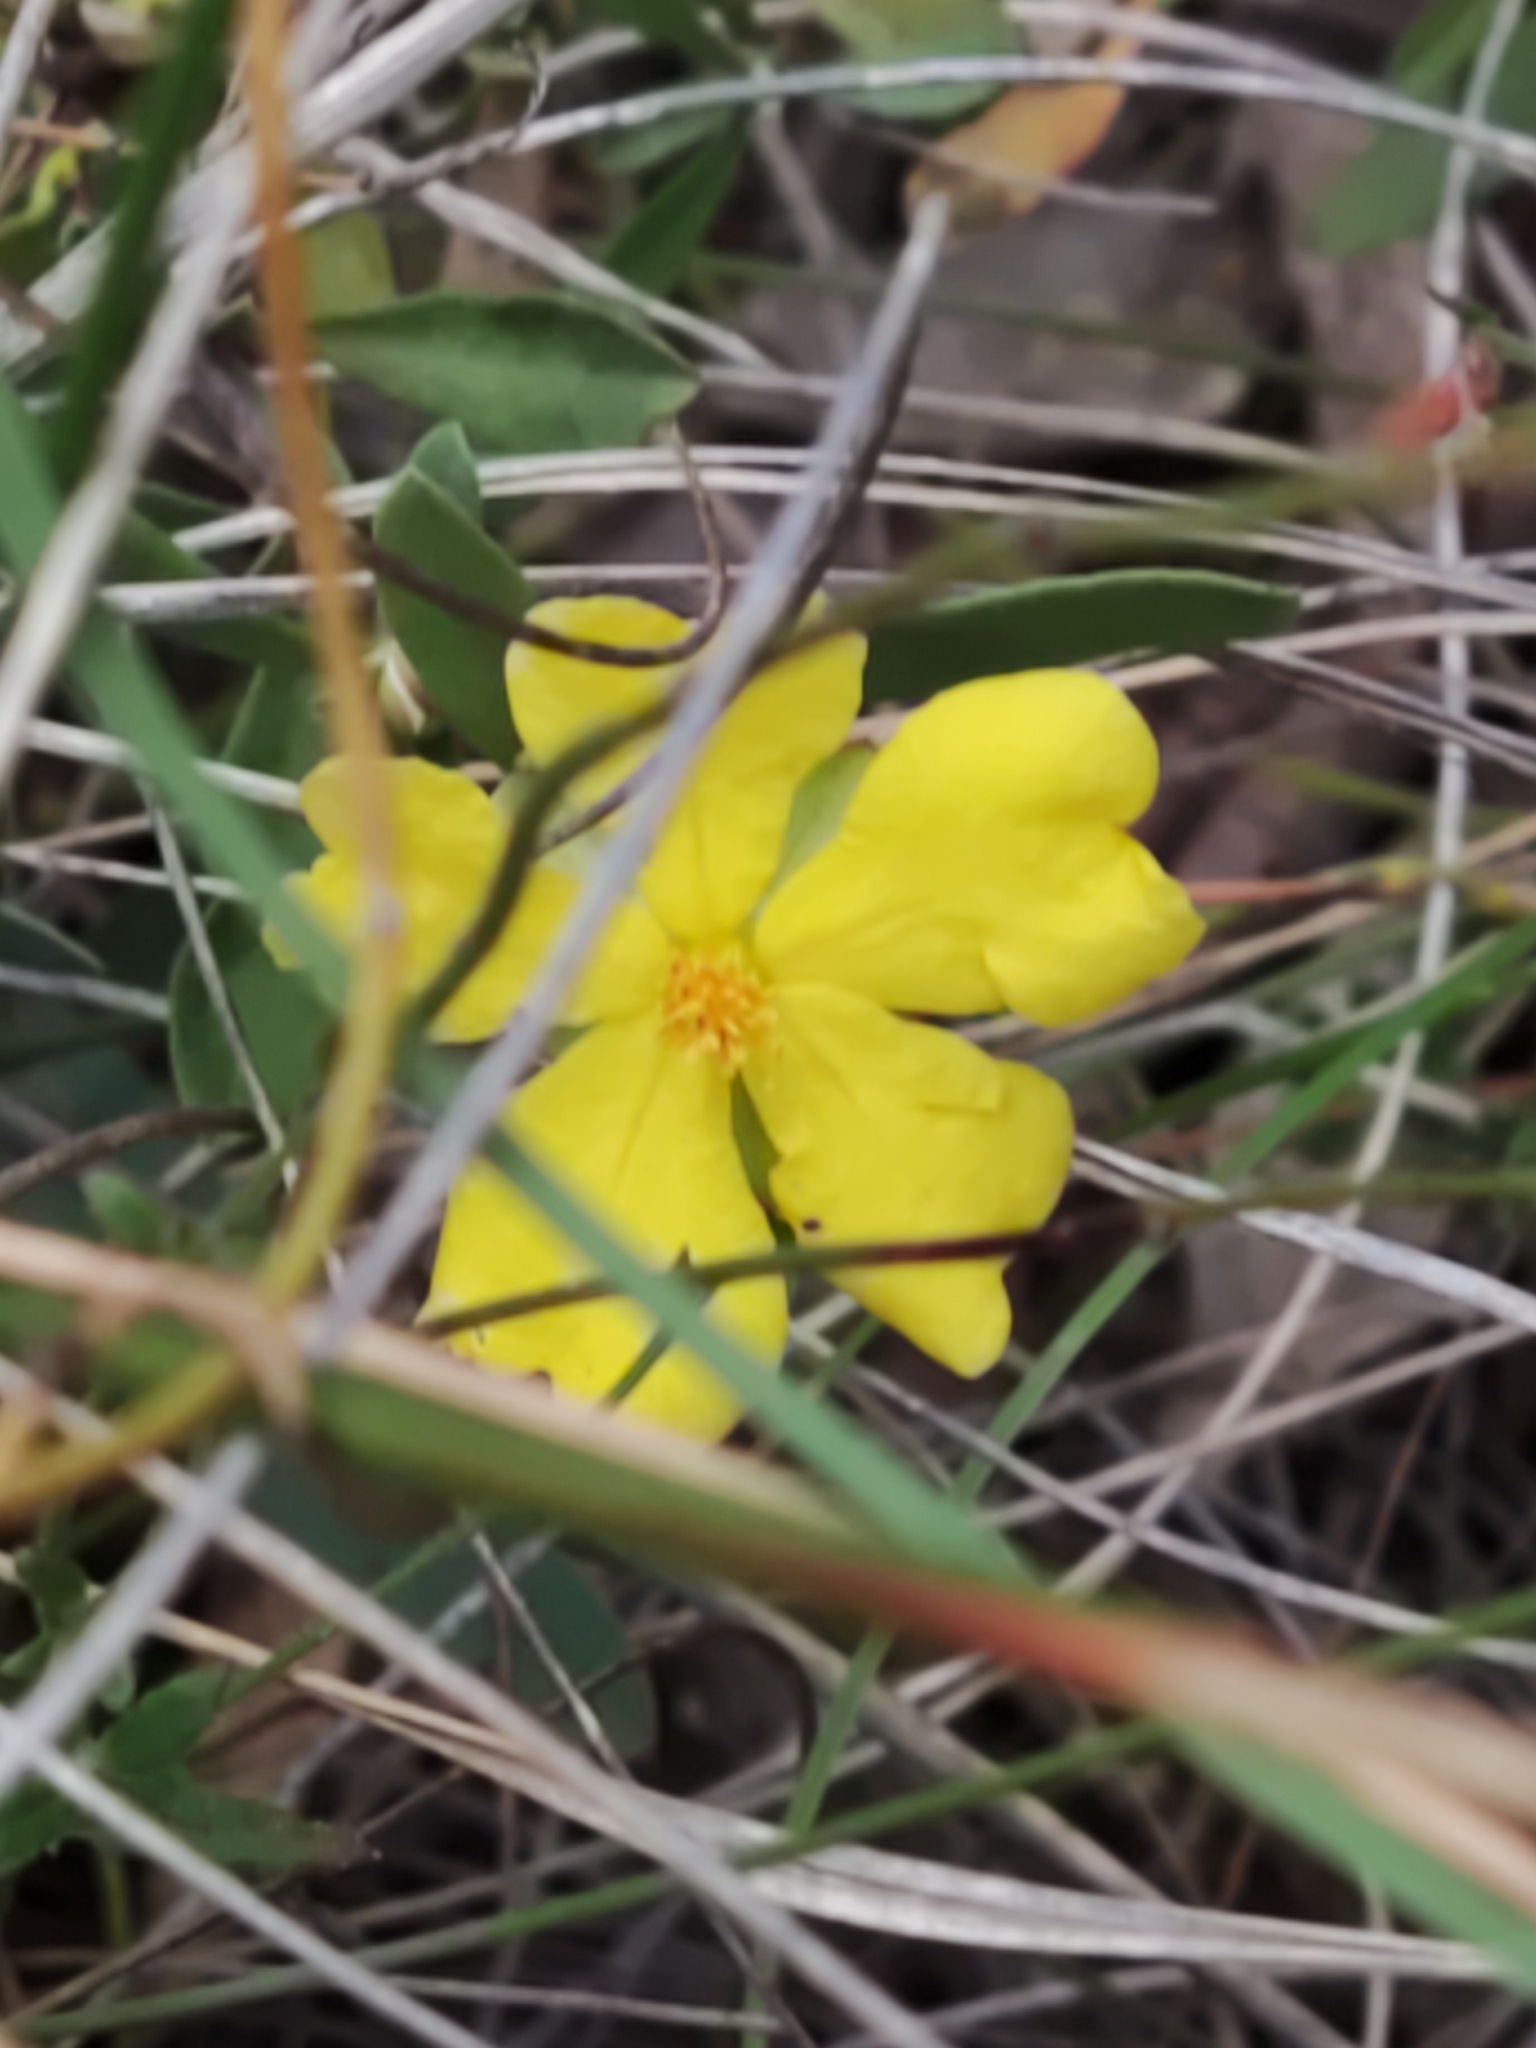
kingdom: Plantae
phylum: Tracheophyta
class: Magnoliopsida
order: Dilleniales
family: Dilleniaceae
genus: Hibbertia
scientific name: Hibbertia obtusifolia
